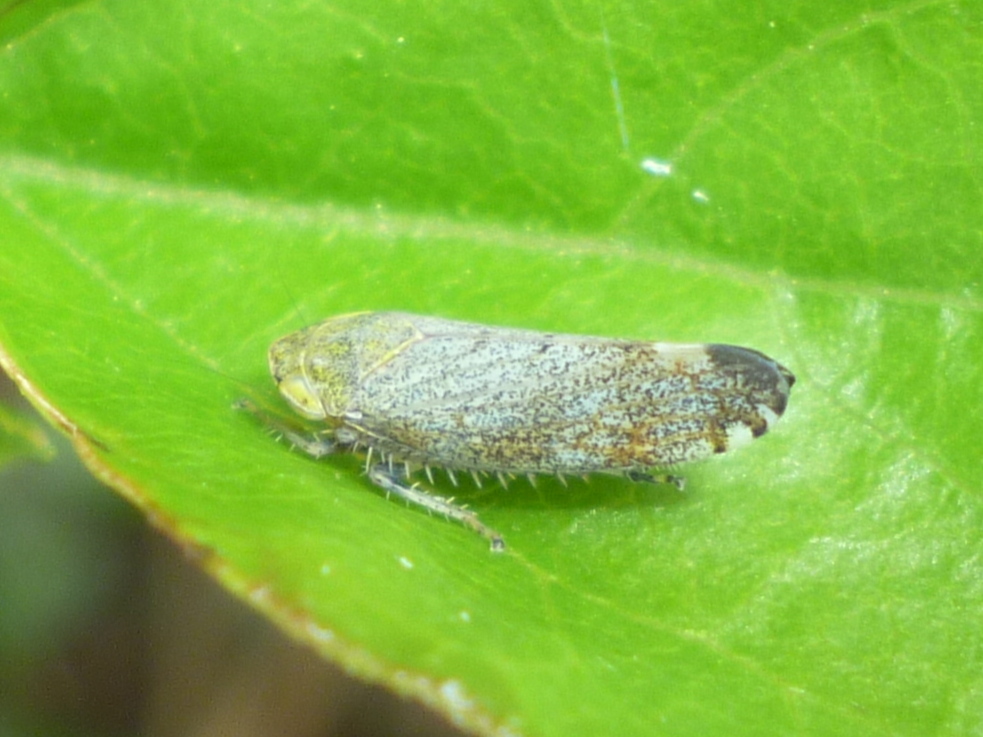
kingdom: Animalia
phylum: Arthropoda
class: Insecta
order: Hemiptera
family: Cicadellidae
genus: Fieberiella
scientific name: Fieberiella florii
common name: Flor’s leafhopper
